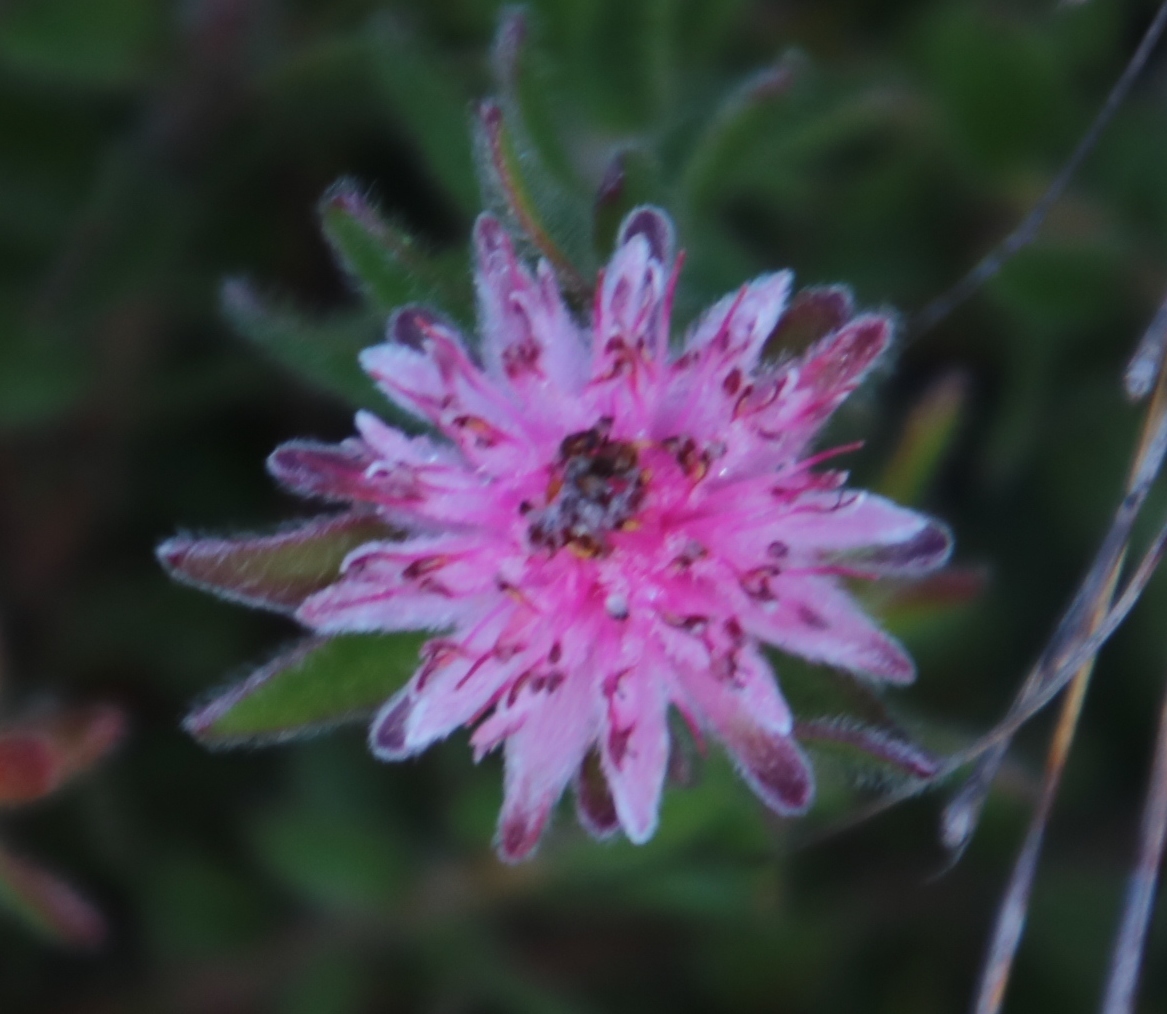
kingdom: Plantae
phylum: Tracheophyta
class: Magnoliopsida
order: Proteales
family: Proteaceae
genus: Diastella
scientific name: Diastella divaricata
